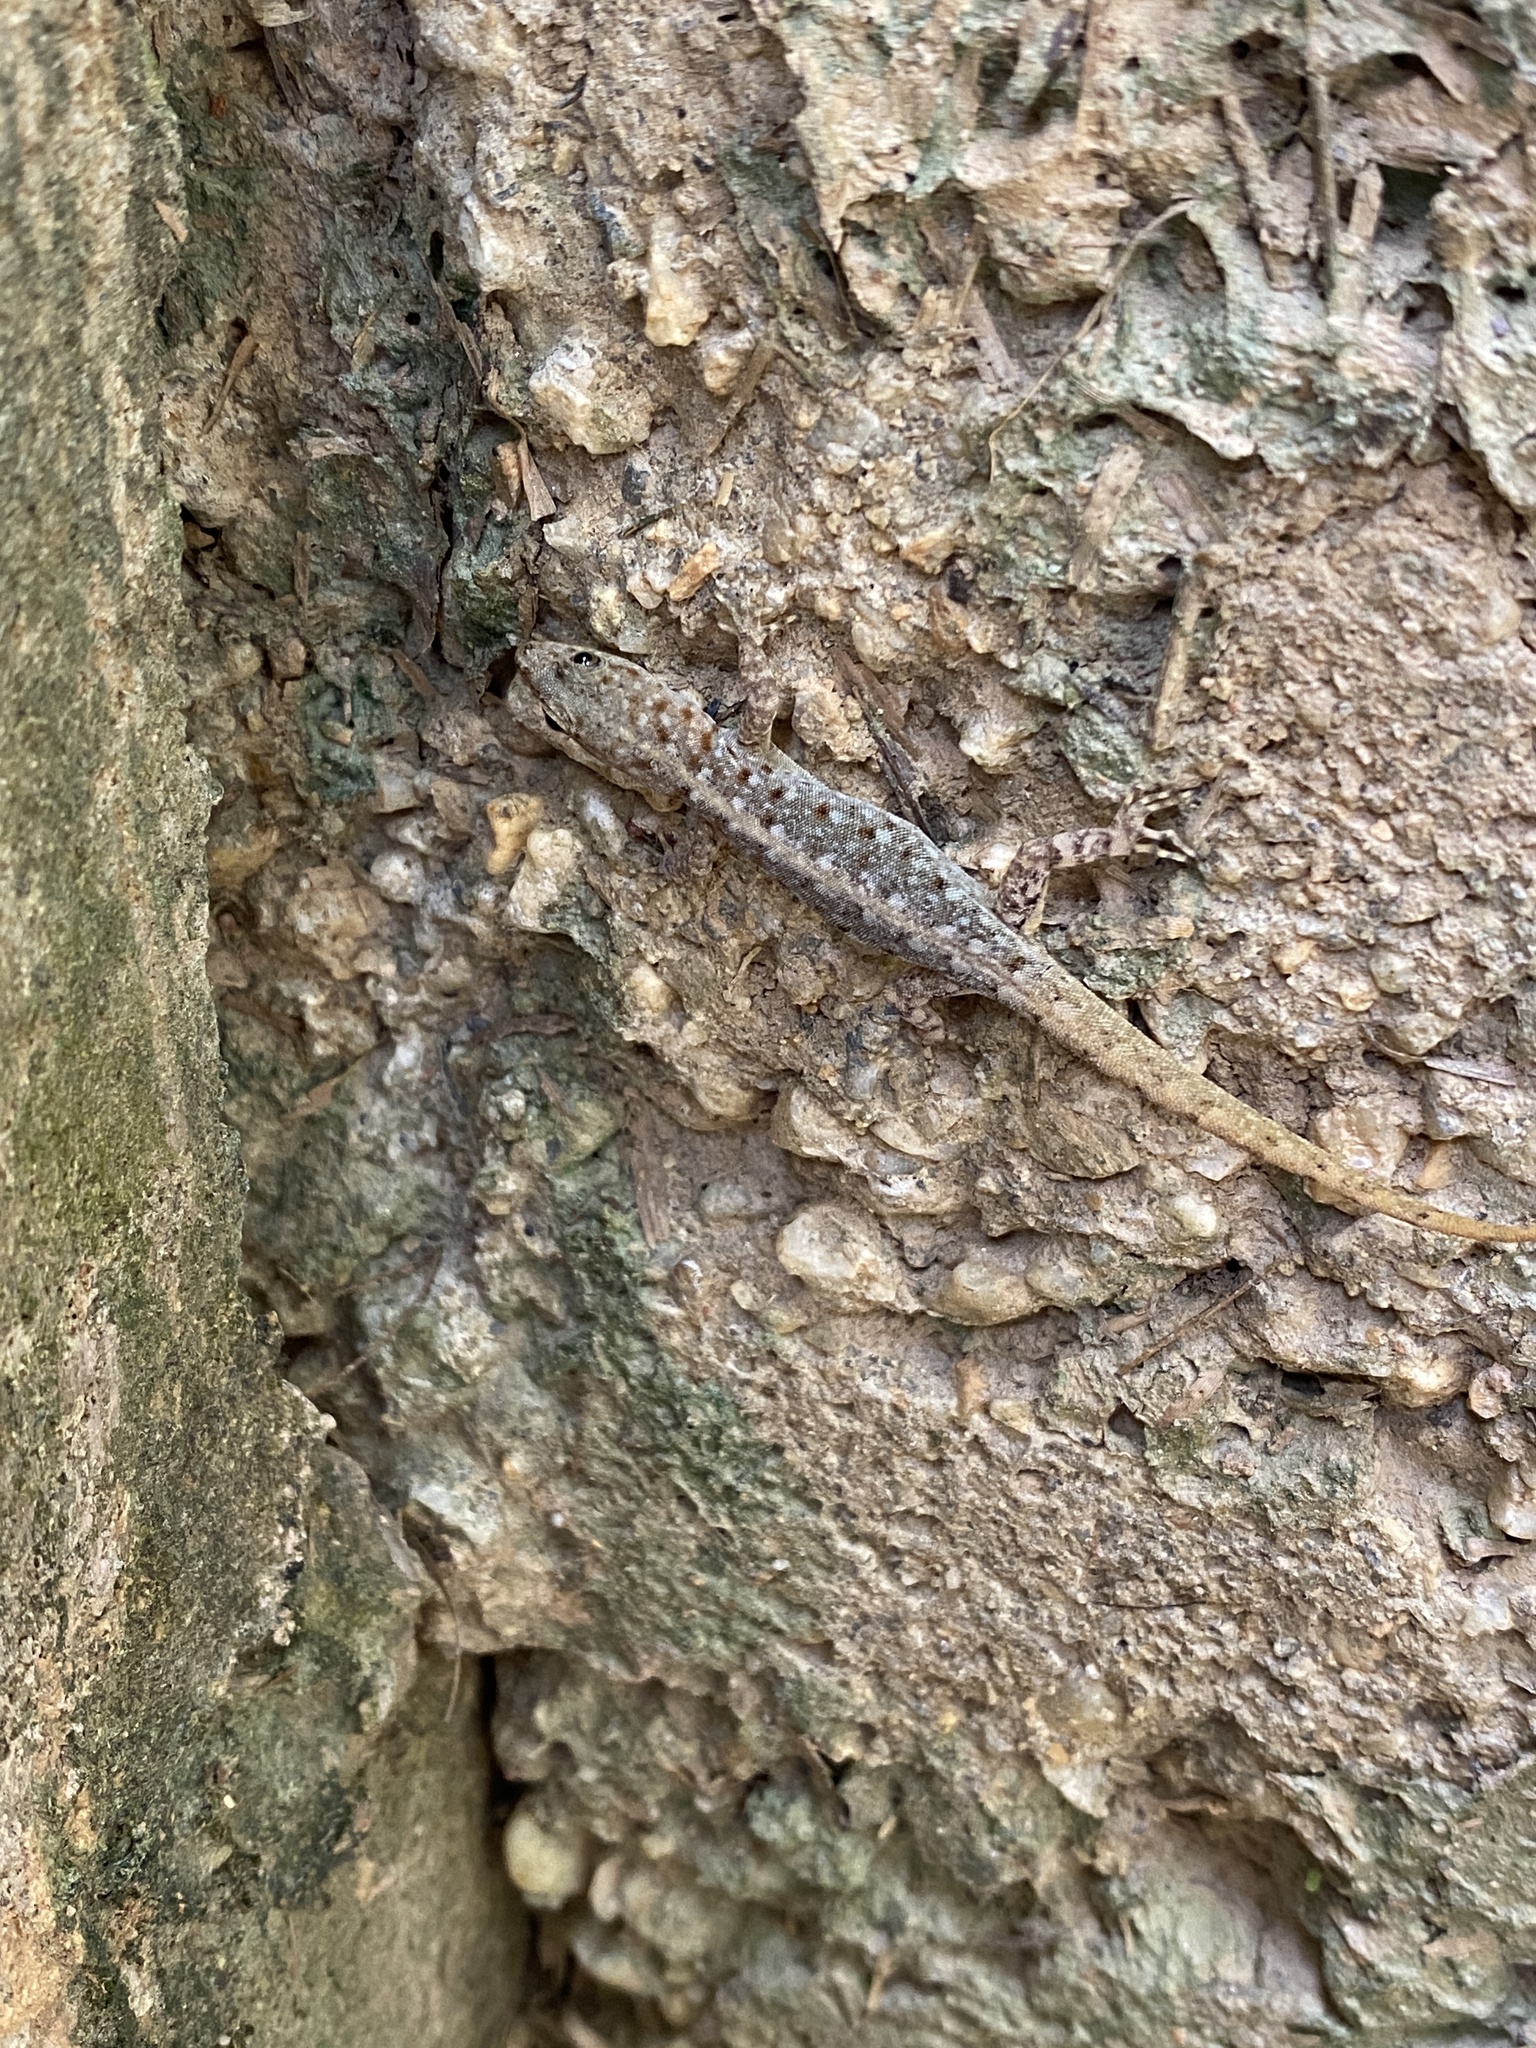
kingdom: Animalia
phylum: Chordata
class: Squamata
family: Sphaerodactylidae
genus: Gonatodes
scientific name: Gonatodes vittatus
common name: Wiegmann's striped gecko
